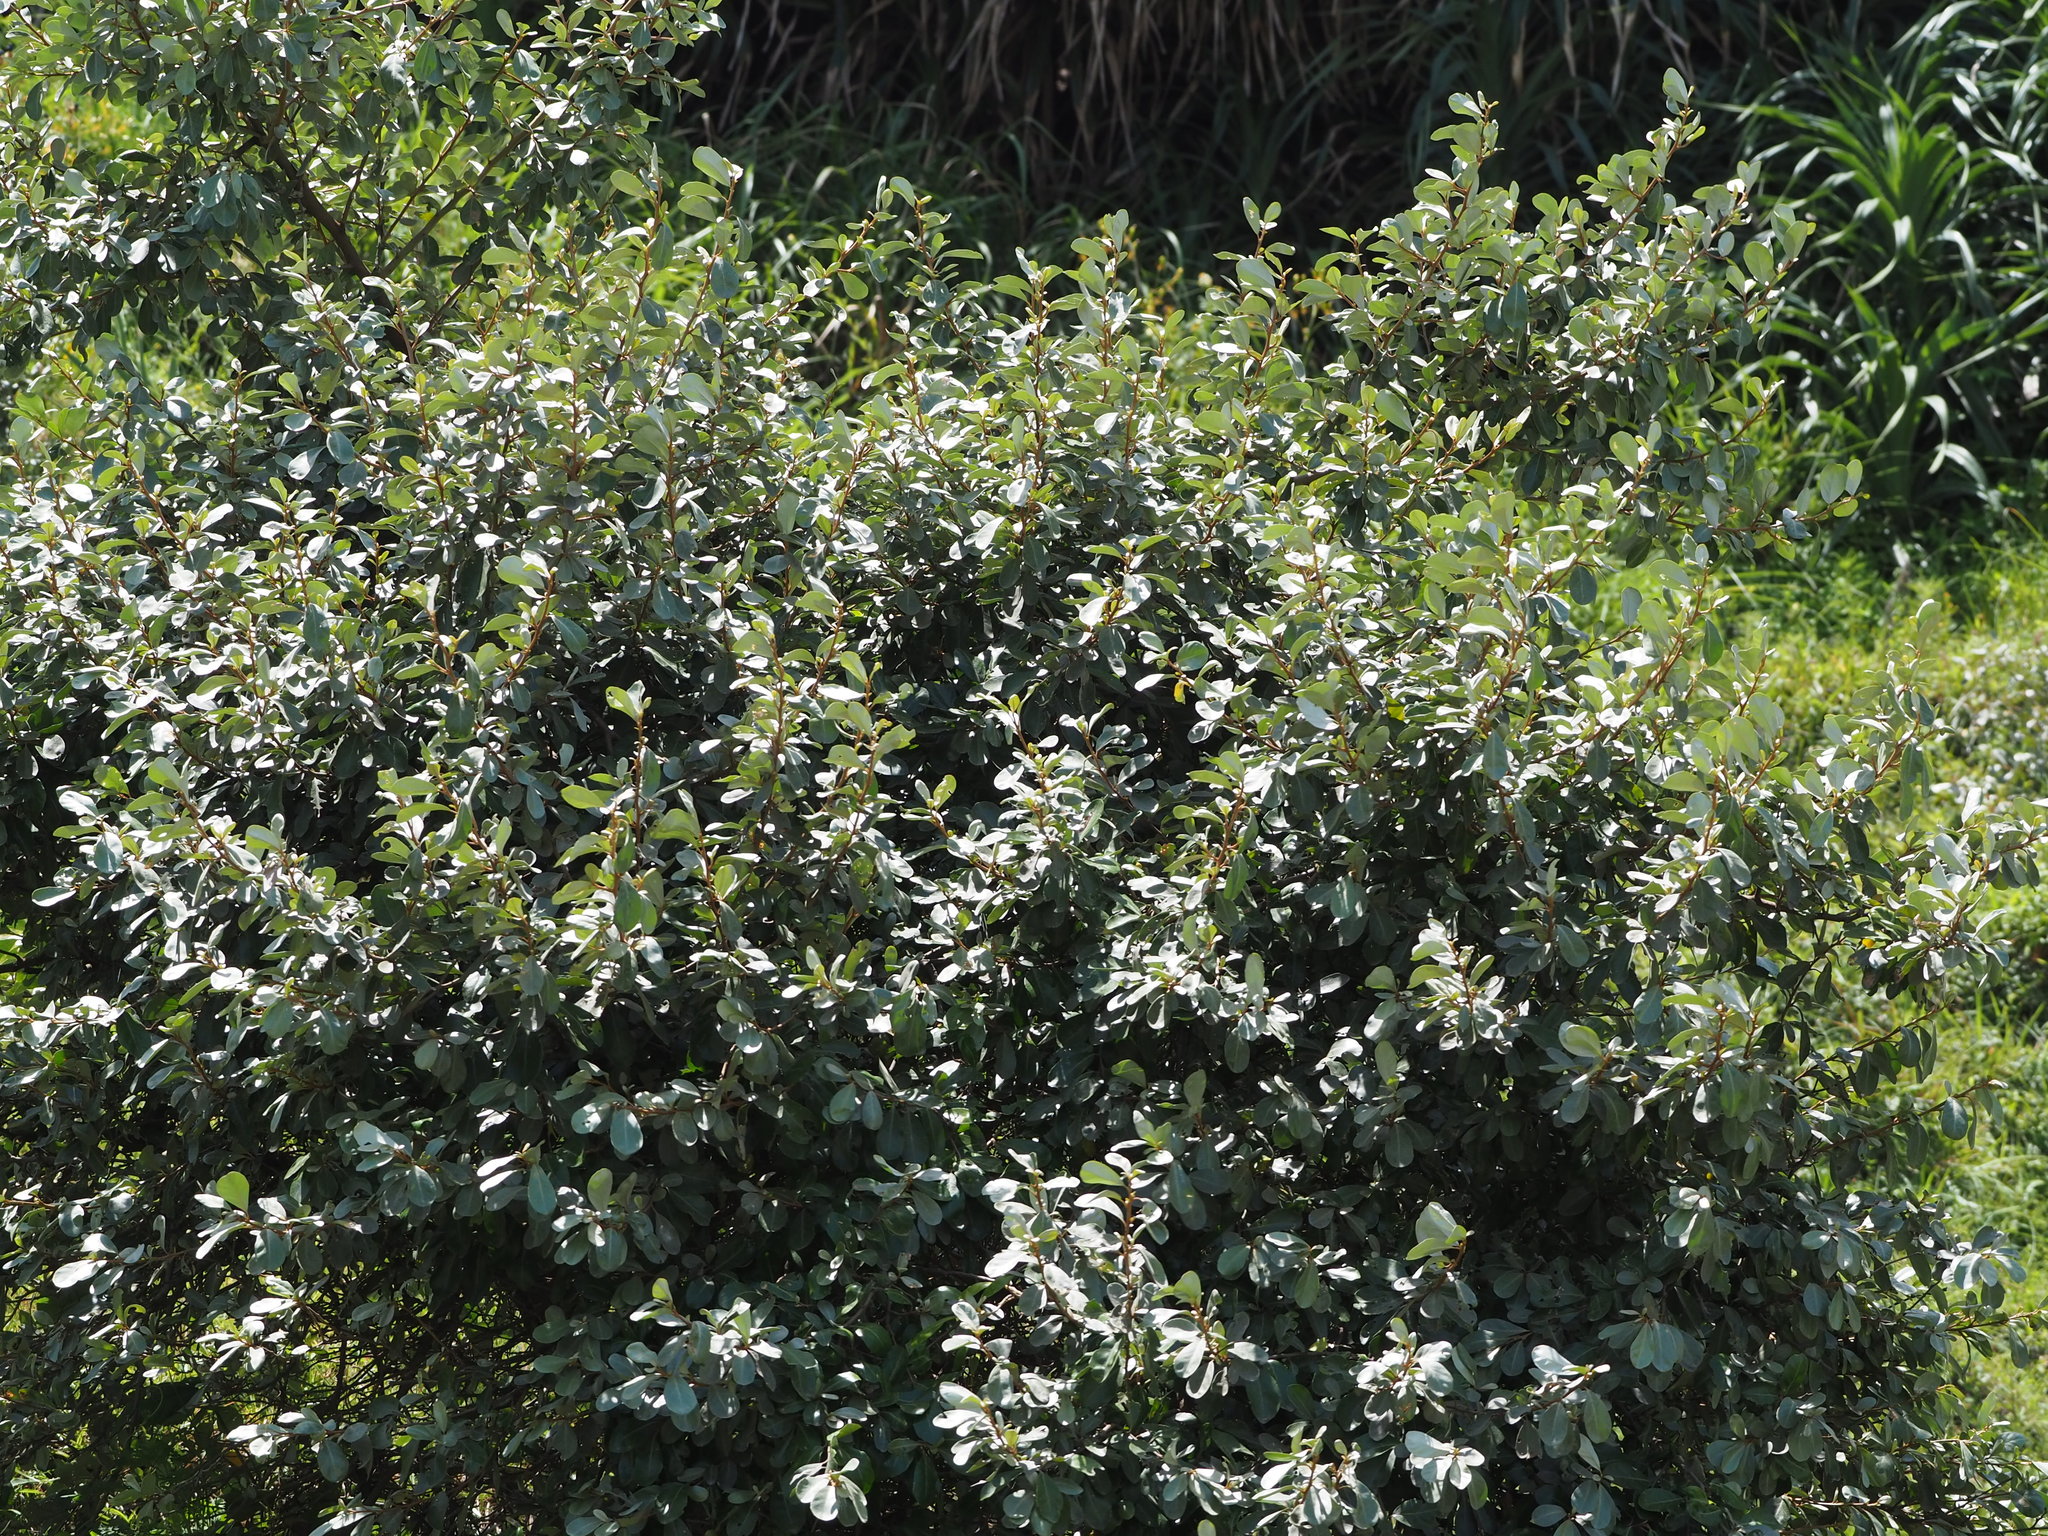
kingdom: Plantae
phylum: Tracheophyta
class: Magnoliopsida
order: Rosales
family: Elaeagnaceae
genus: Elaeagnus
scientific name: Elaeagnus oldhamii
